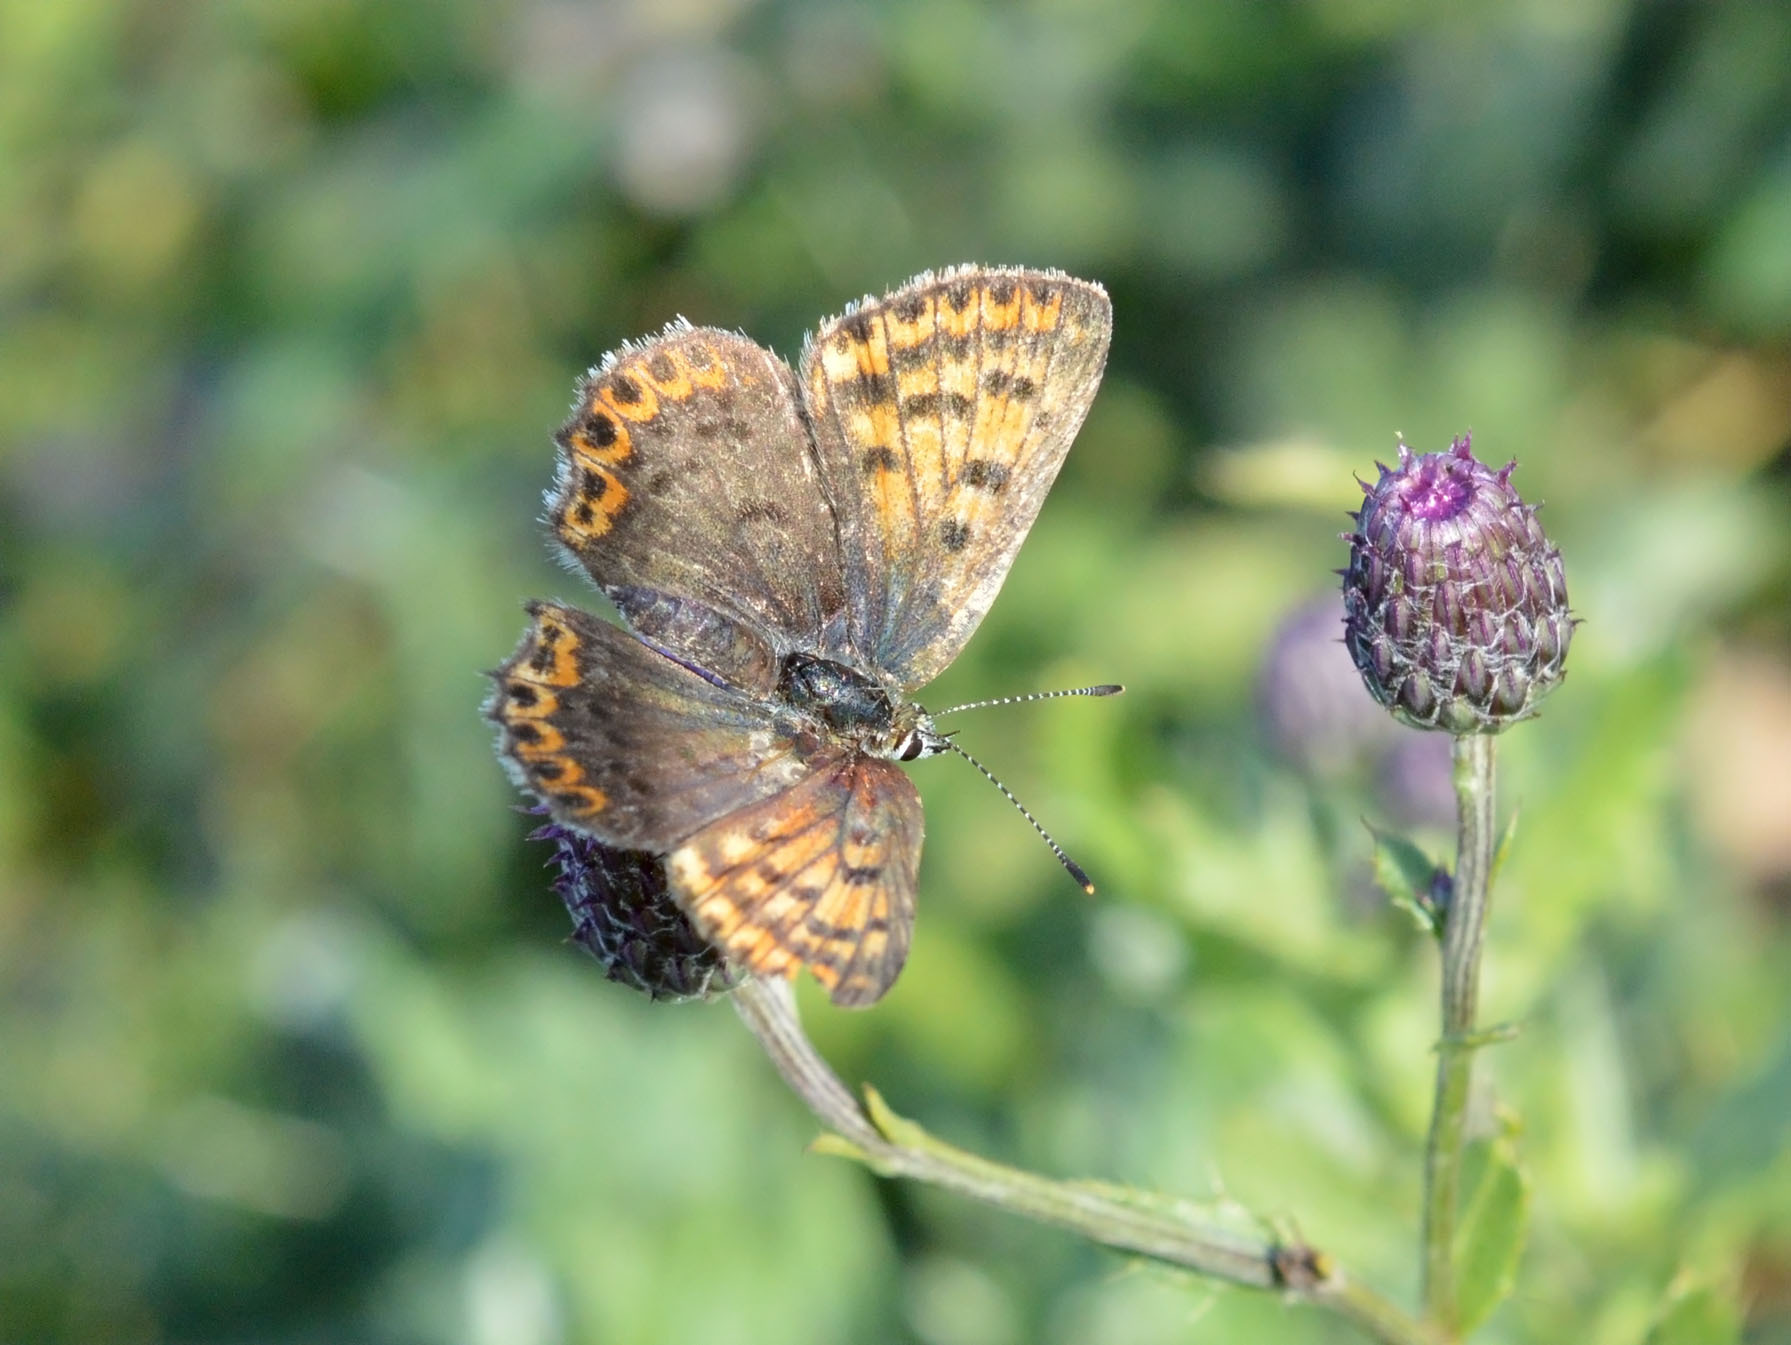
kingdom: Animalia
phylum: Arthropoda
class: Insecta
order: Lepidoptera
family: Lycaenidae
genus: Loweia
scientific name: Loweia tityrus
